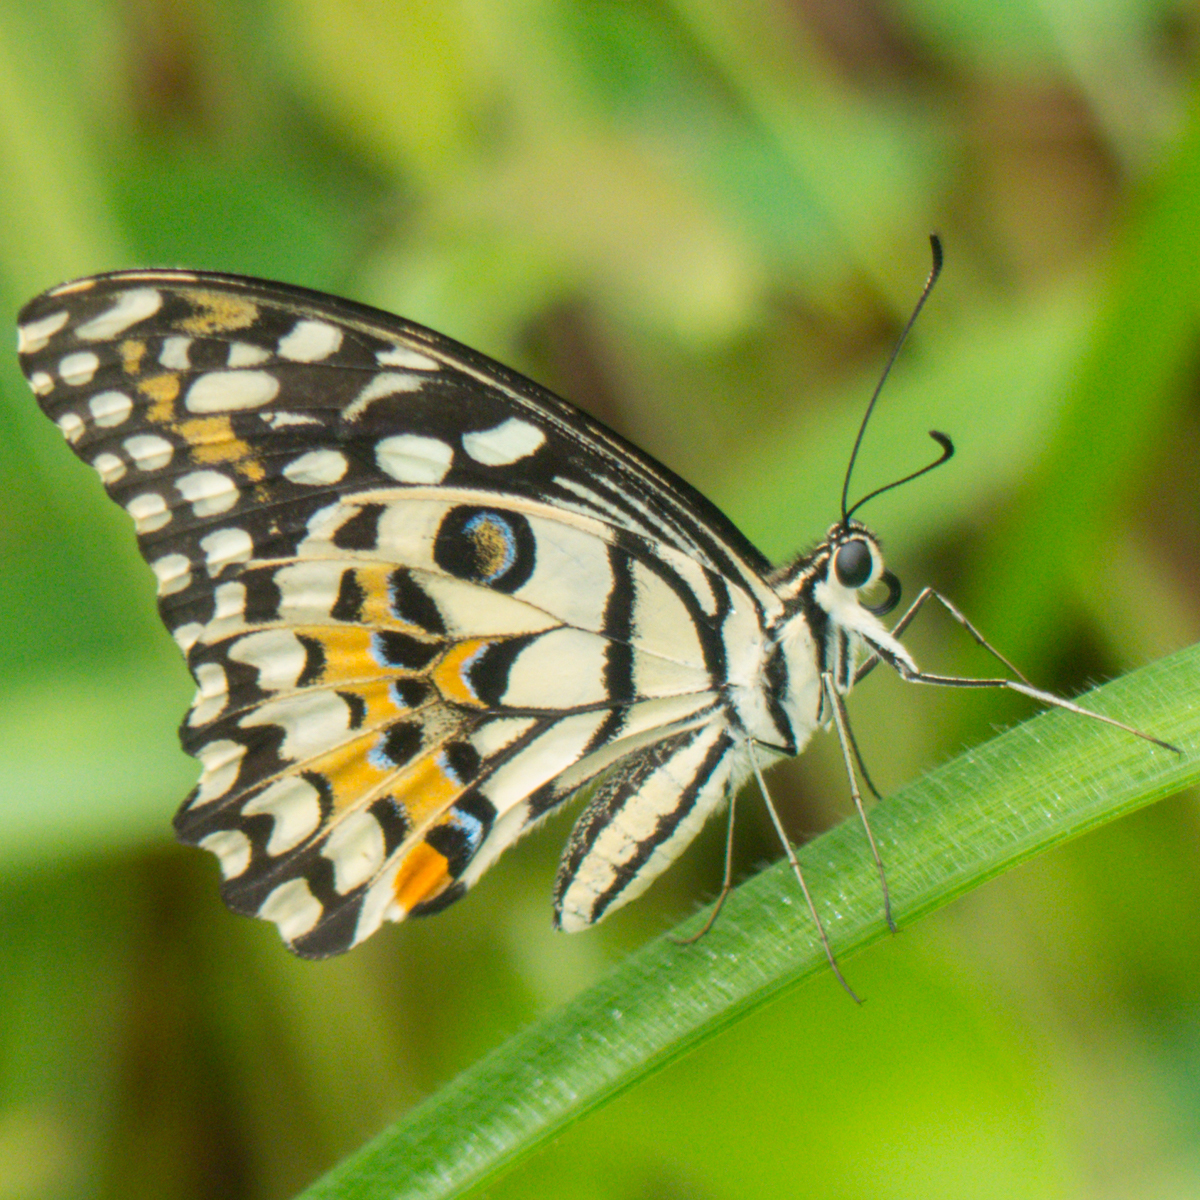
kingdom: Animalia
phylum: Arthropoda
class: Insecta
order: Lepidoptera
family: Papilionidae
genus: Papilio
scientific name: Papilio demoleus
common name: Lime butterfly
